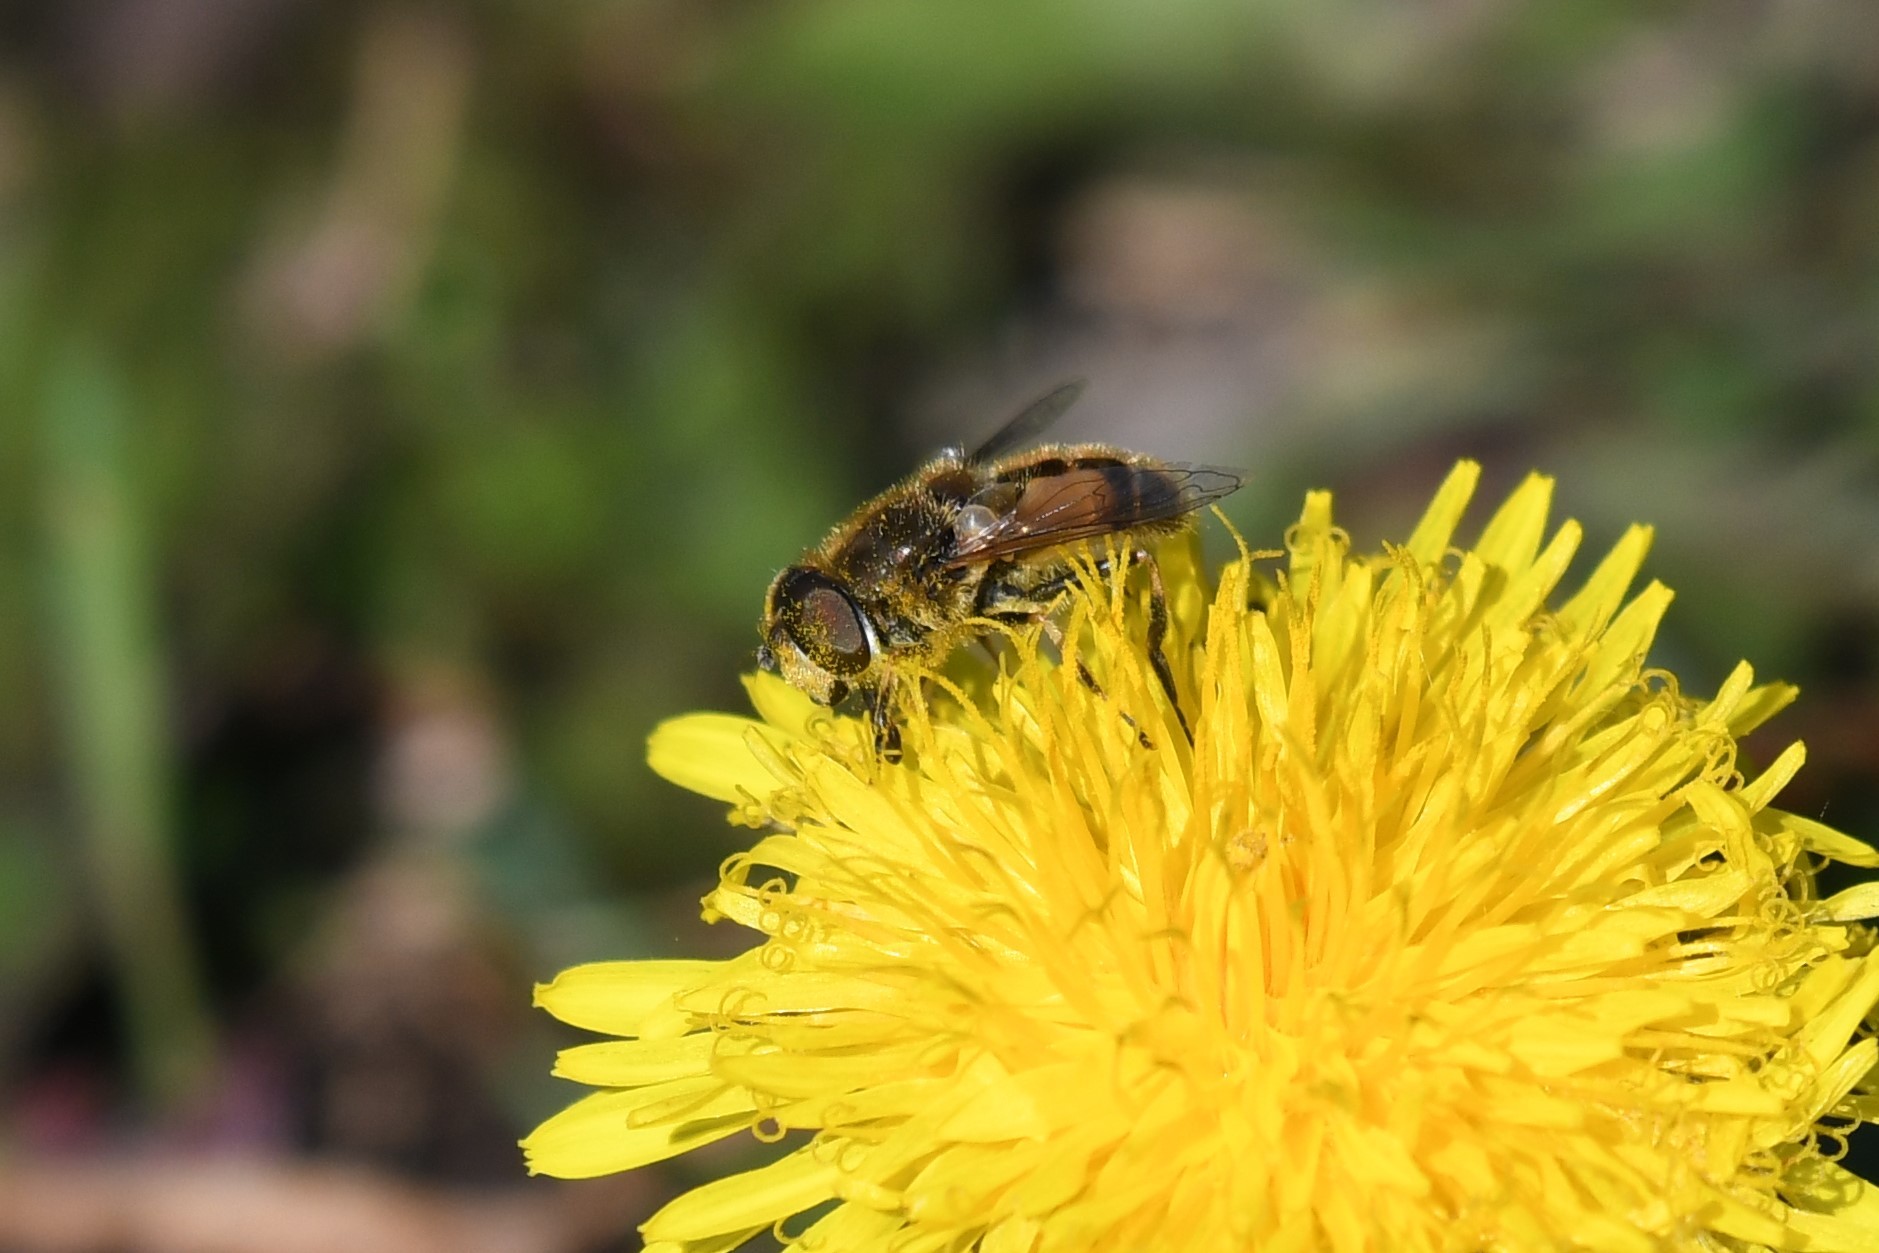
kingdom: Animalia
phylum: Arthropoda
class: Insecta
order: Diptera
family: Syrphidae
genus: Eristalis
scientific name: Eristalis arbustorum
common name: Hover fly
